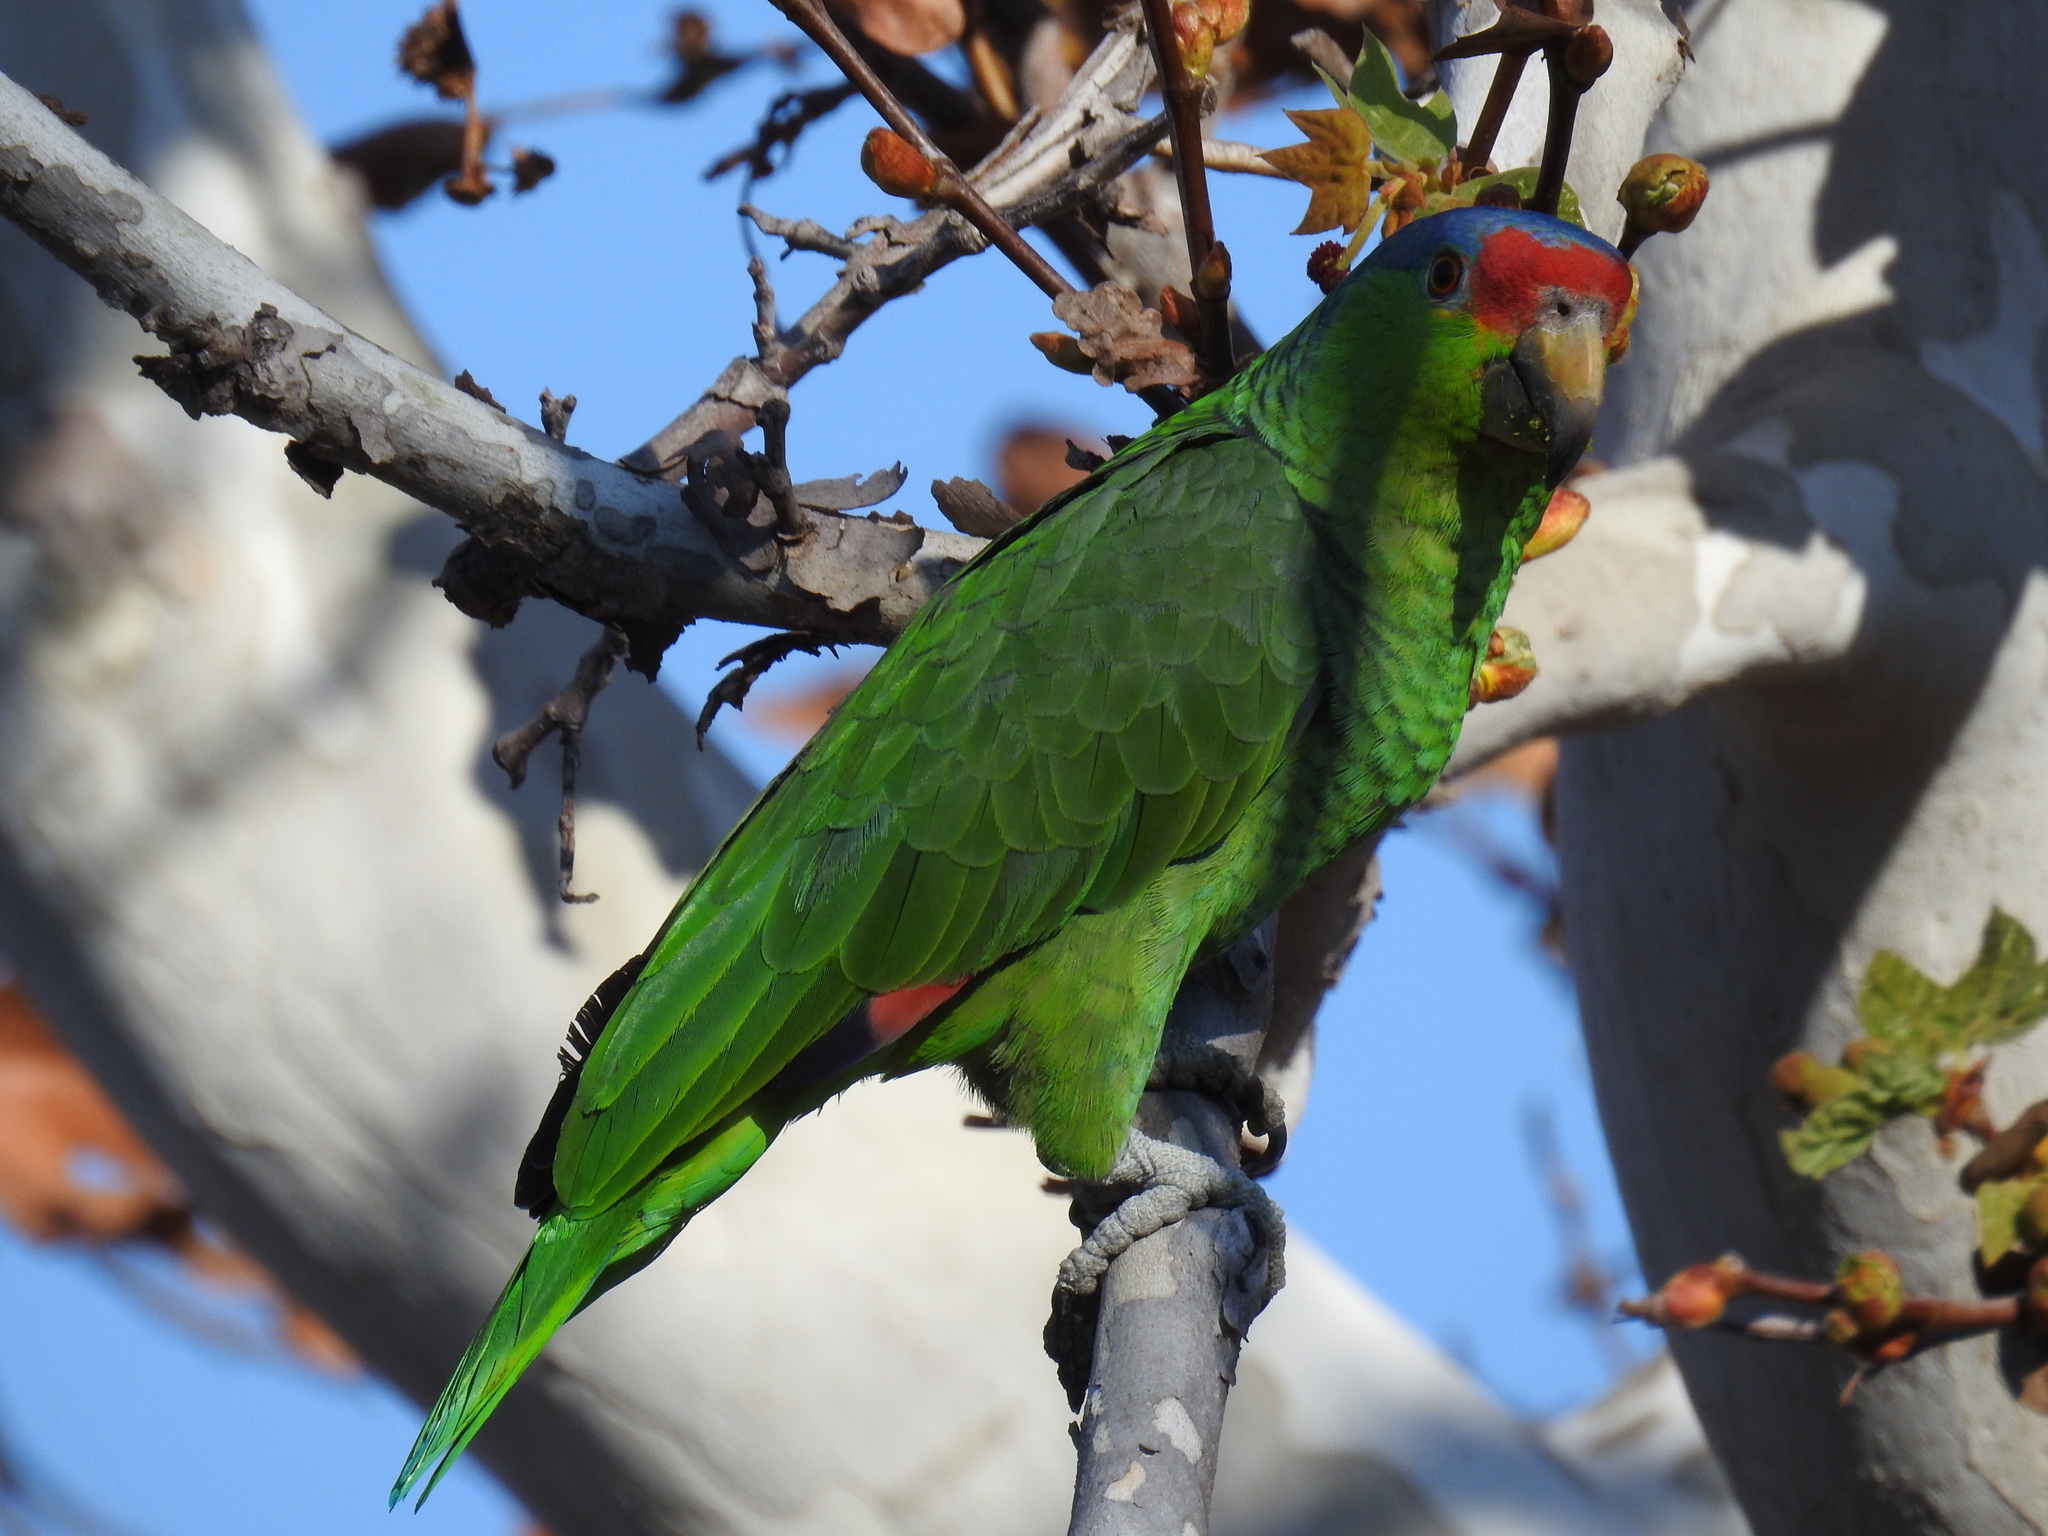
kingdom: Animalia
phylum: Chordata
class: Aves
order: Psittaciformes
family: Psittacidae
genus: Amazona
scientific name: Amazona
